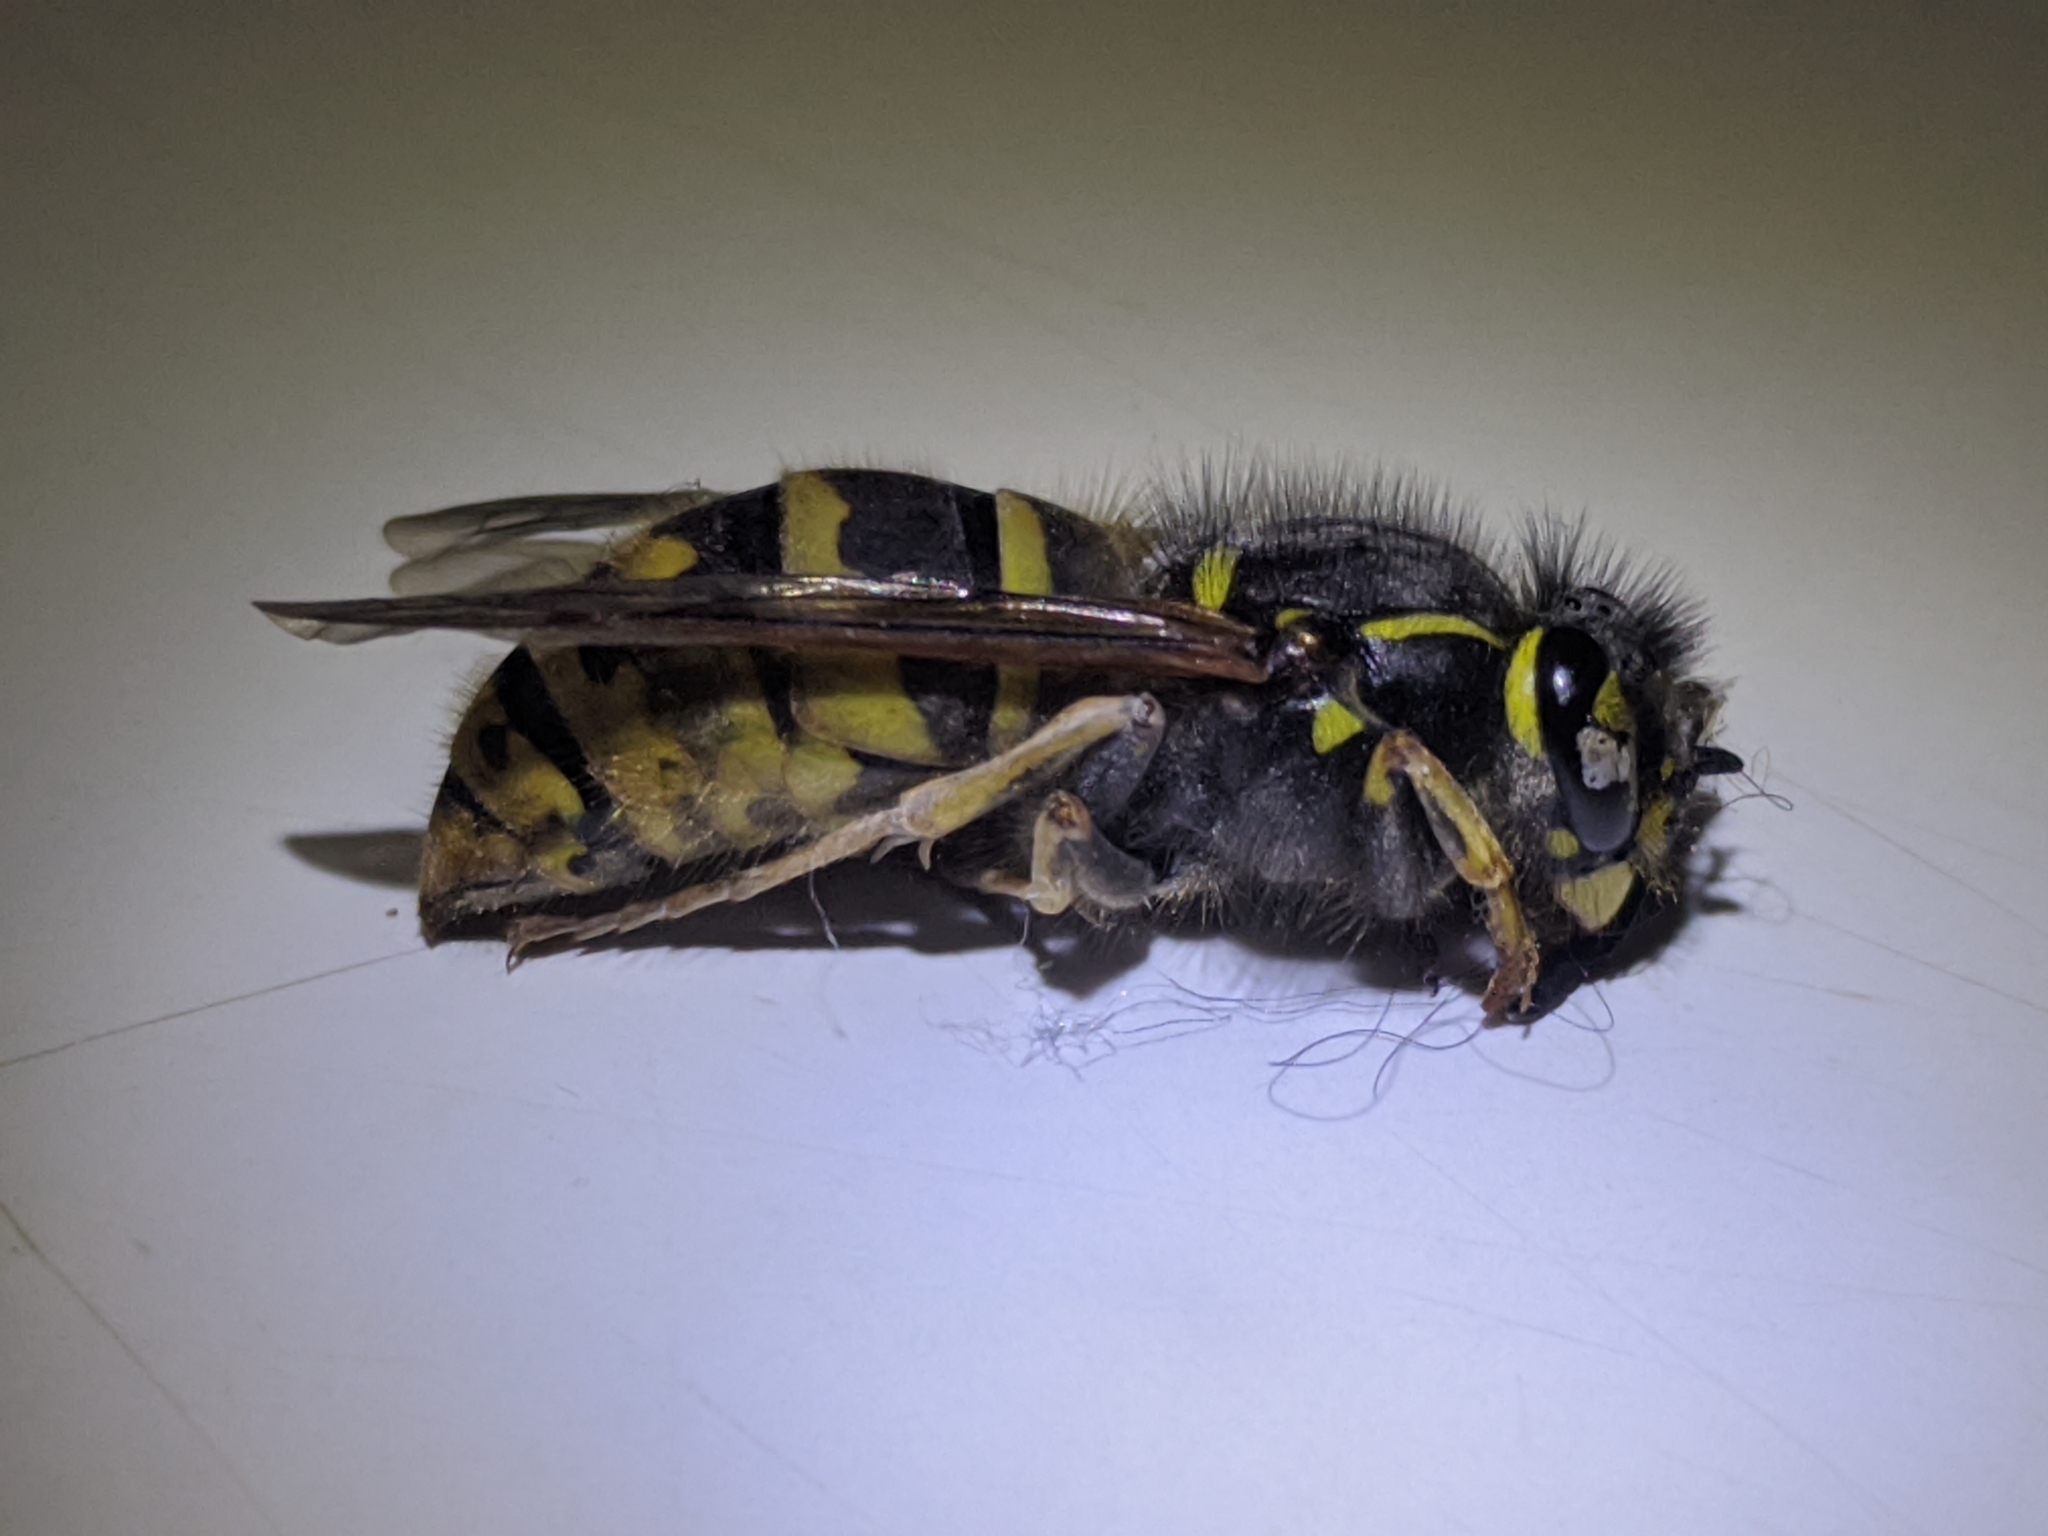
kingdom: Animalia
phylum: Arthropoda
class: Insecta
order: Hymenoptera
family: Vespidae
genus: Vespula
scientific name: Vespula vulgaris
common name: Common wasp
